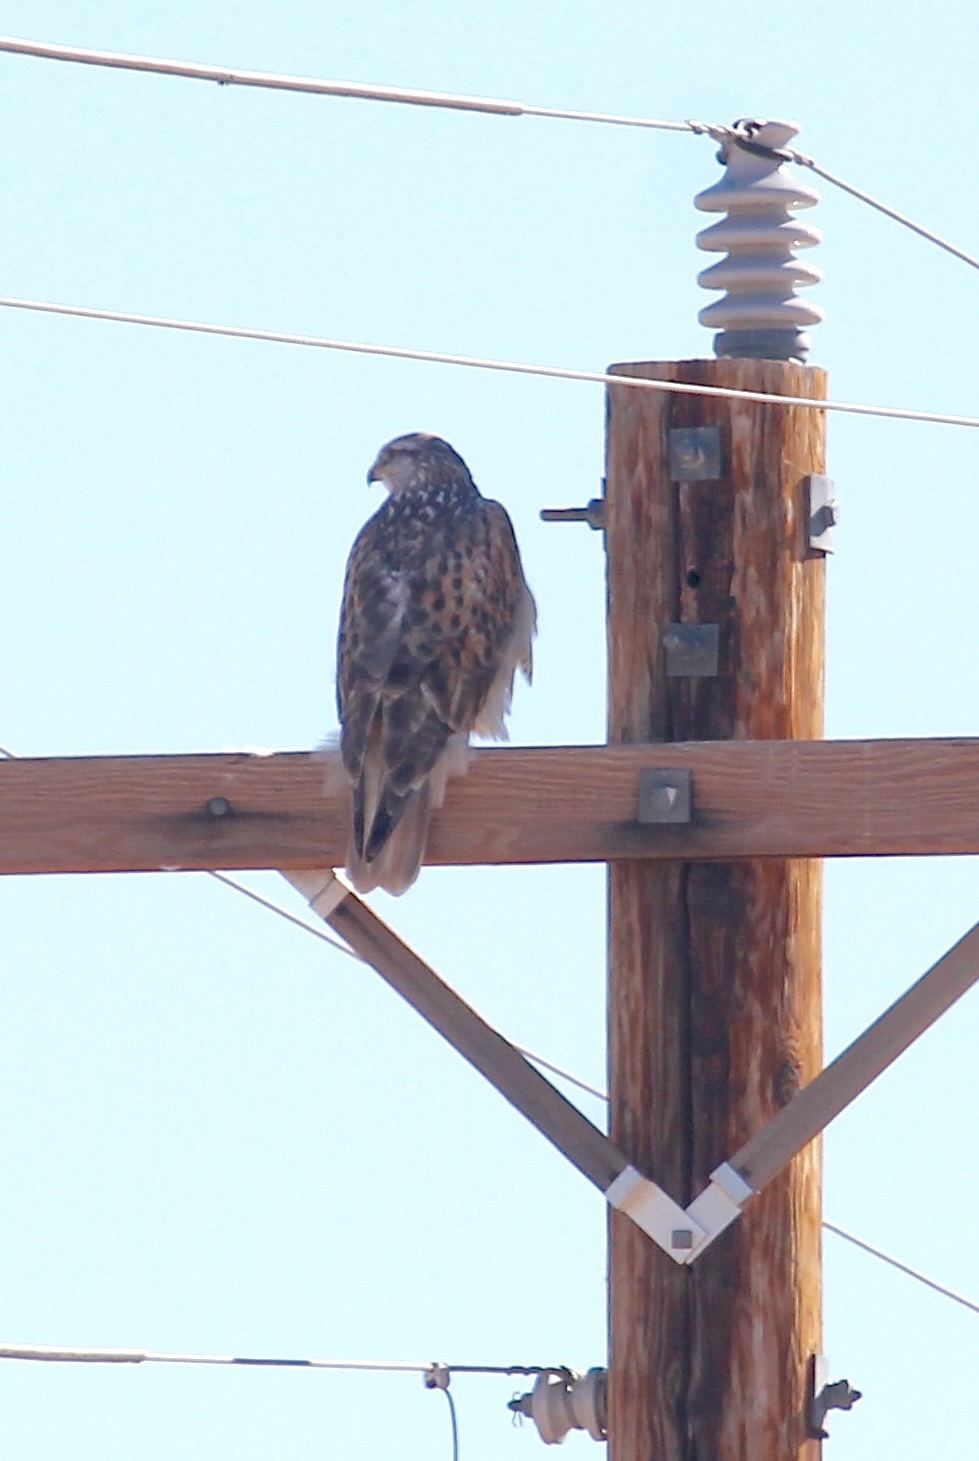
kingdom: Animalia
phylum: Chordata
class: Aves
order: Accipitriformes
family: Accipitridae
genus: Buteo
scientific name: Buteo regalis
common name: Ferruginous hawk
